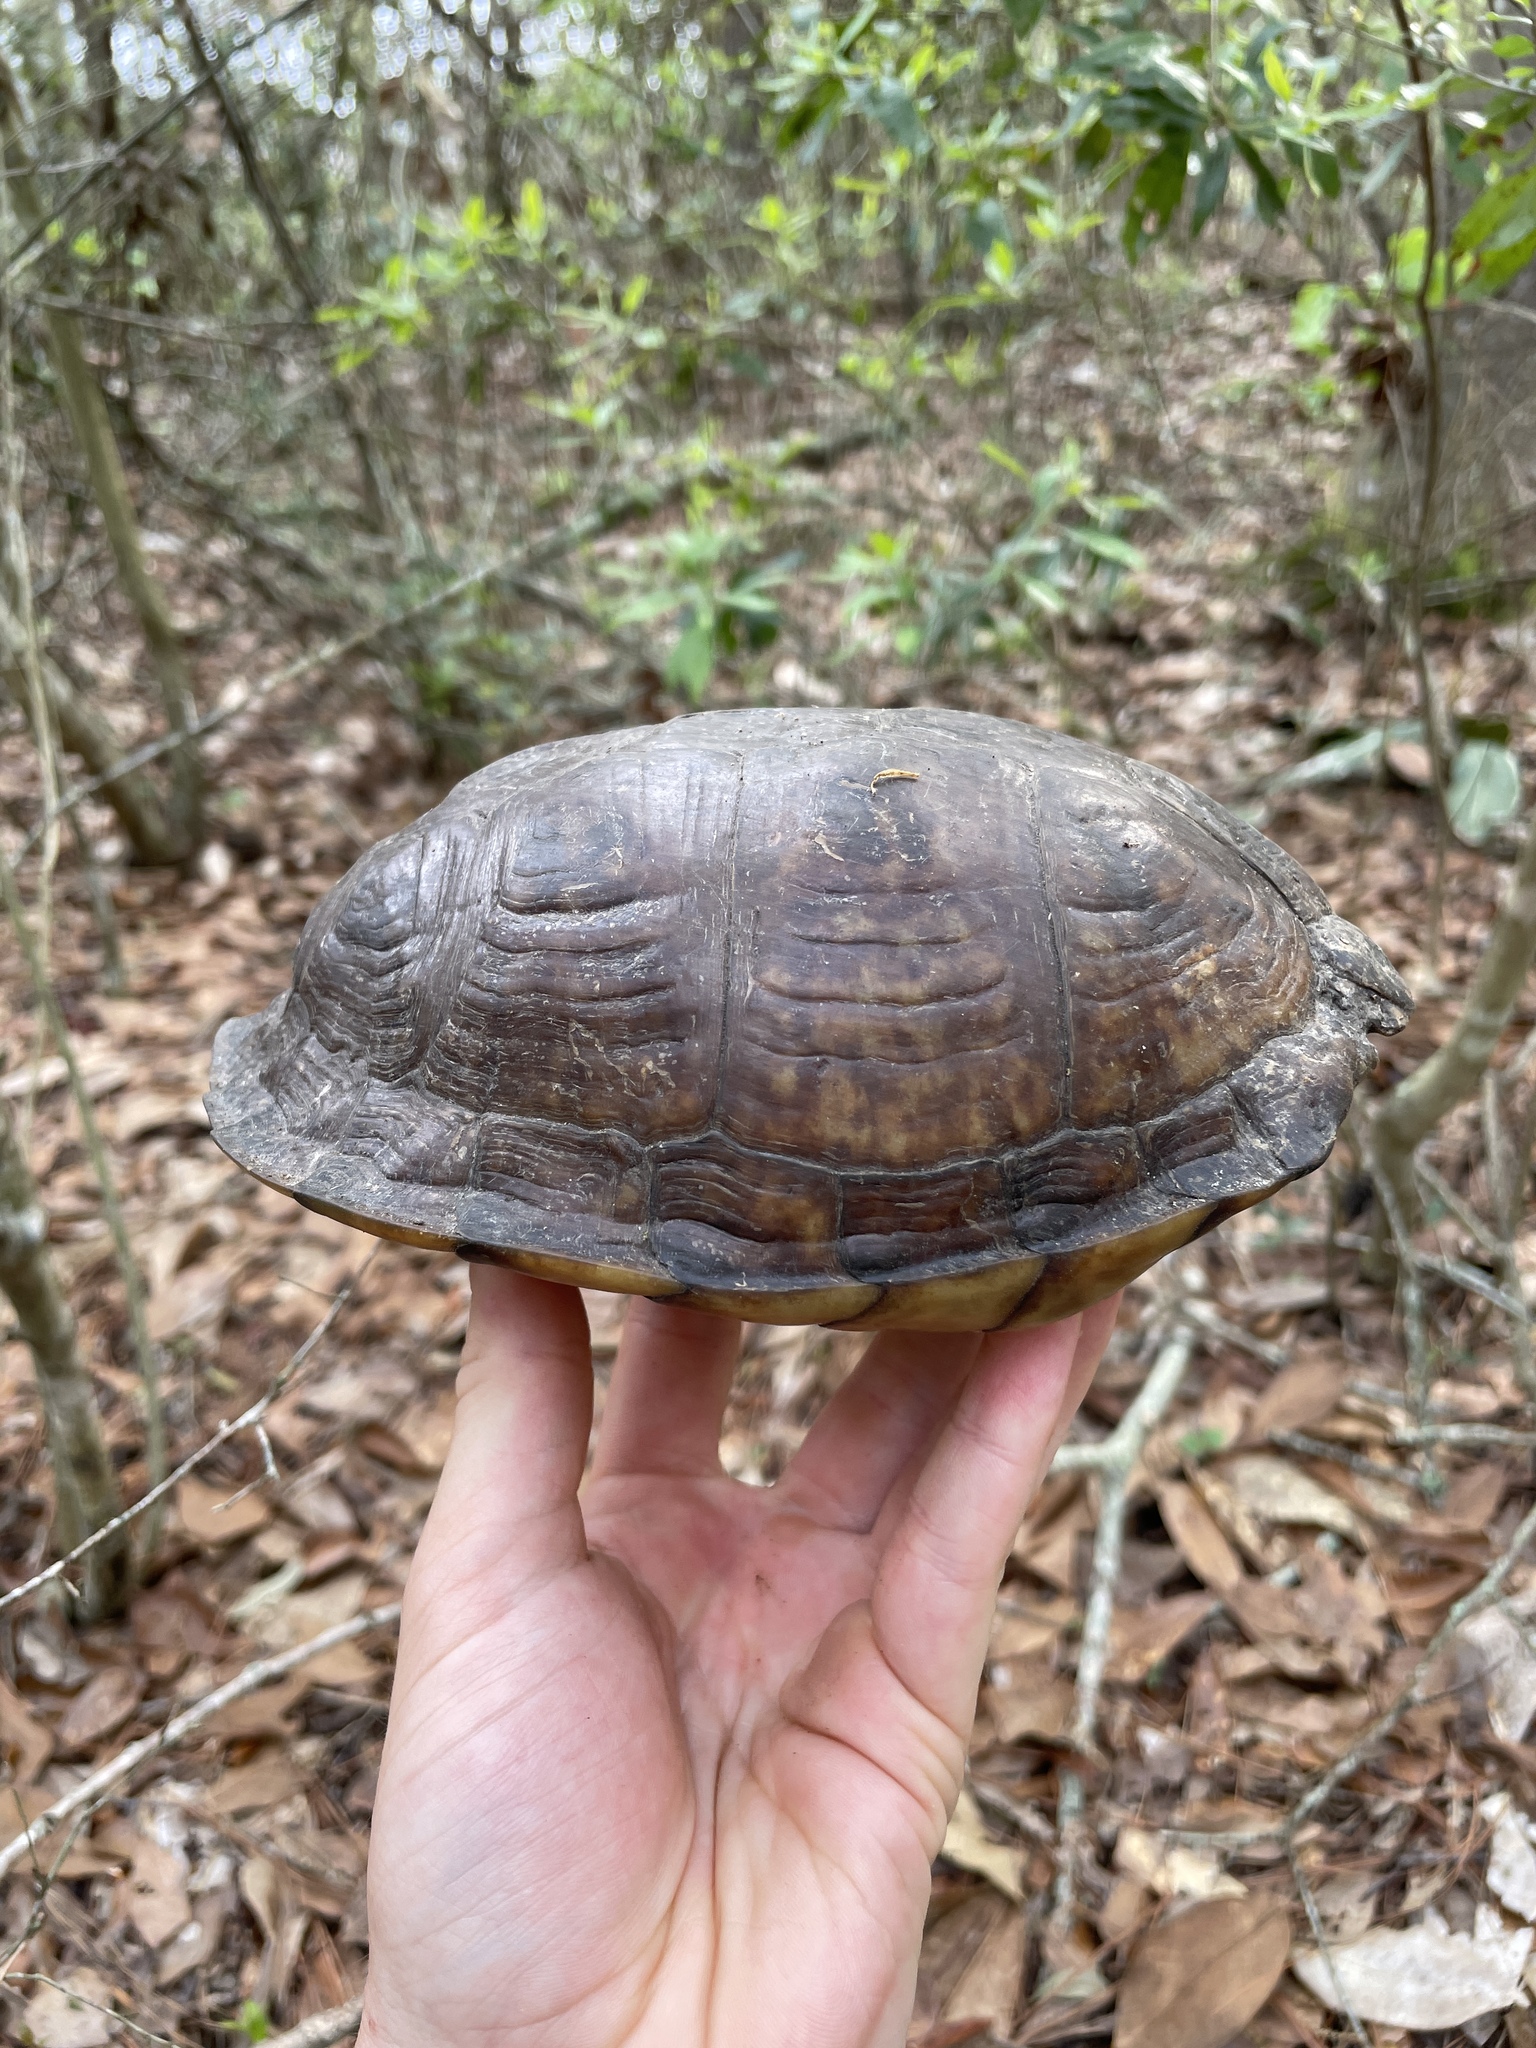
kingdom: Animalia
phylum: Chordata
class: Testudines
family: Emydidae
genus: Terrapene
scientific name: Terrapene carolina
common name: Common box turtle
